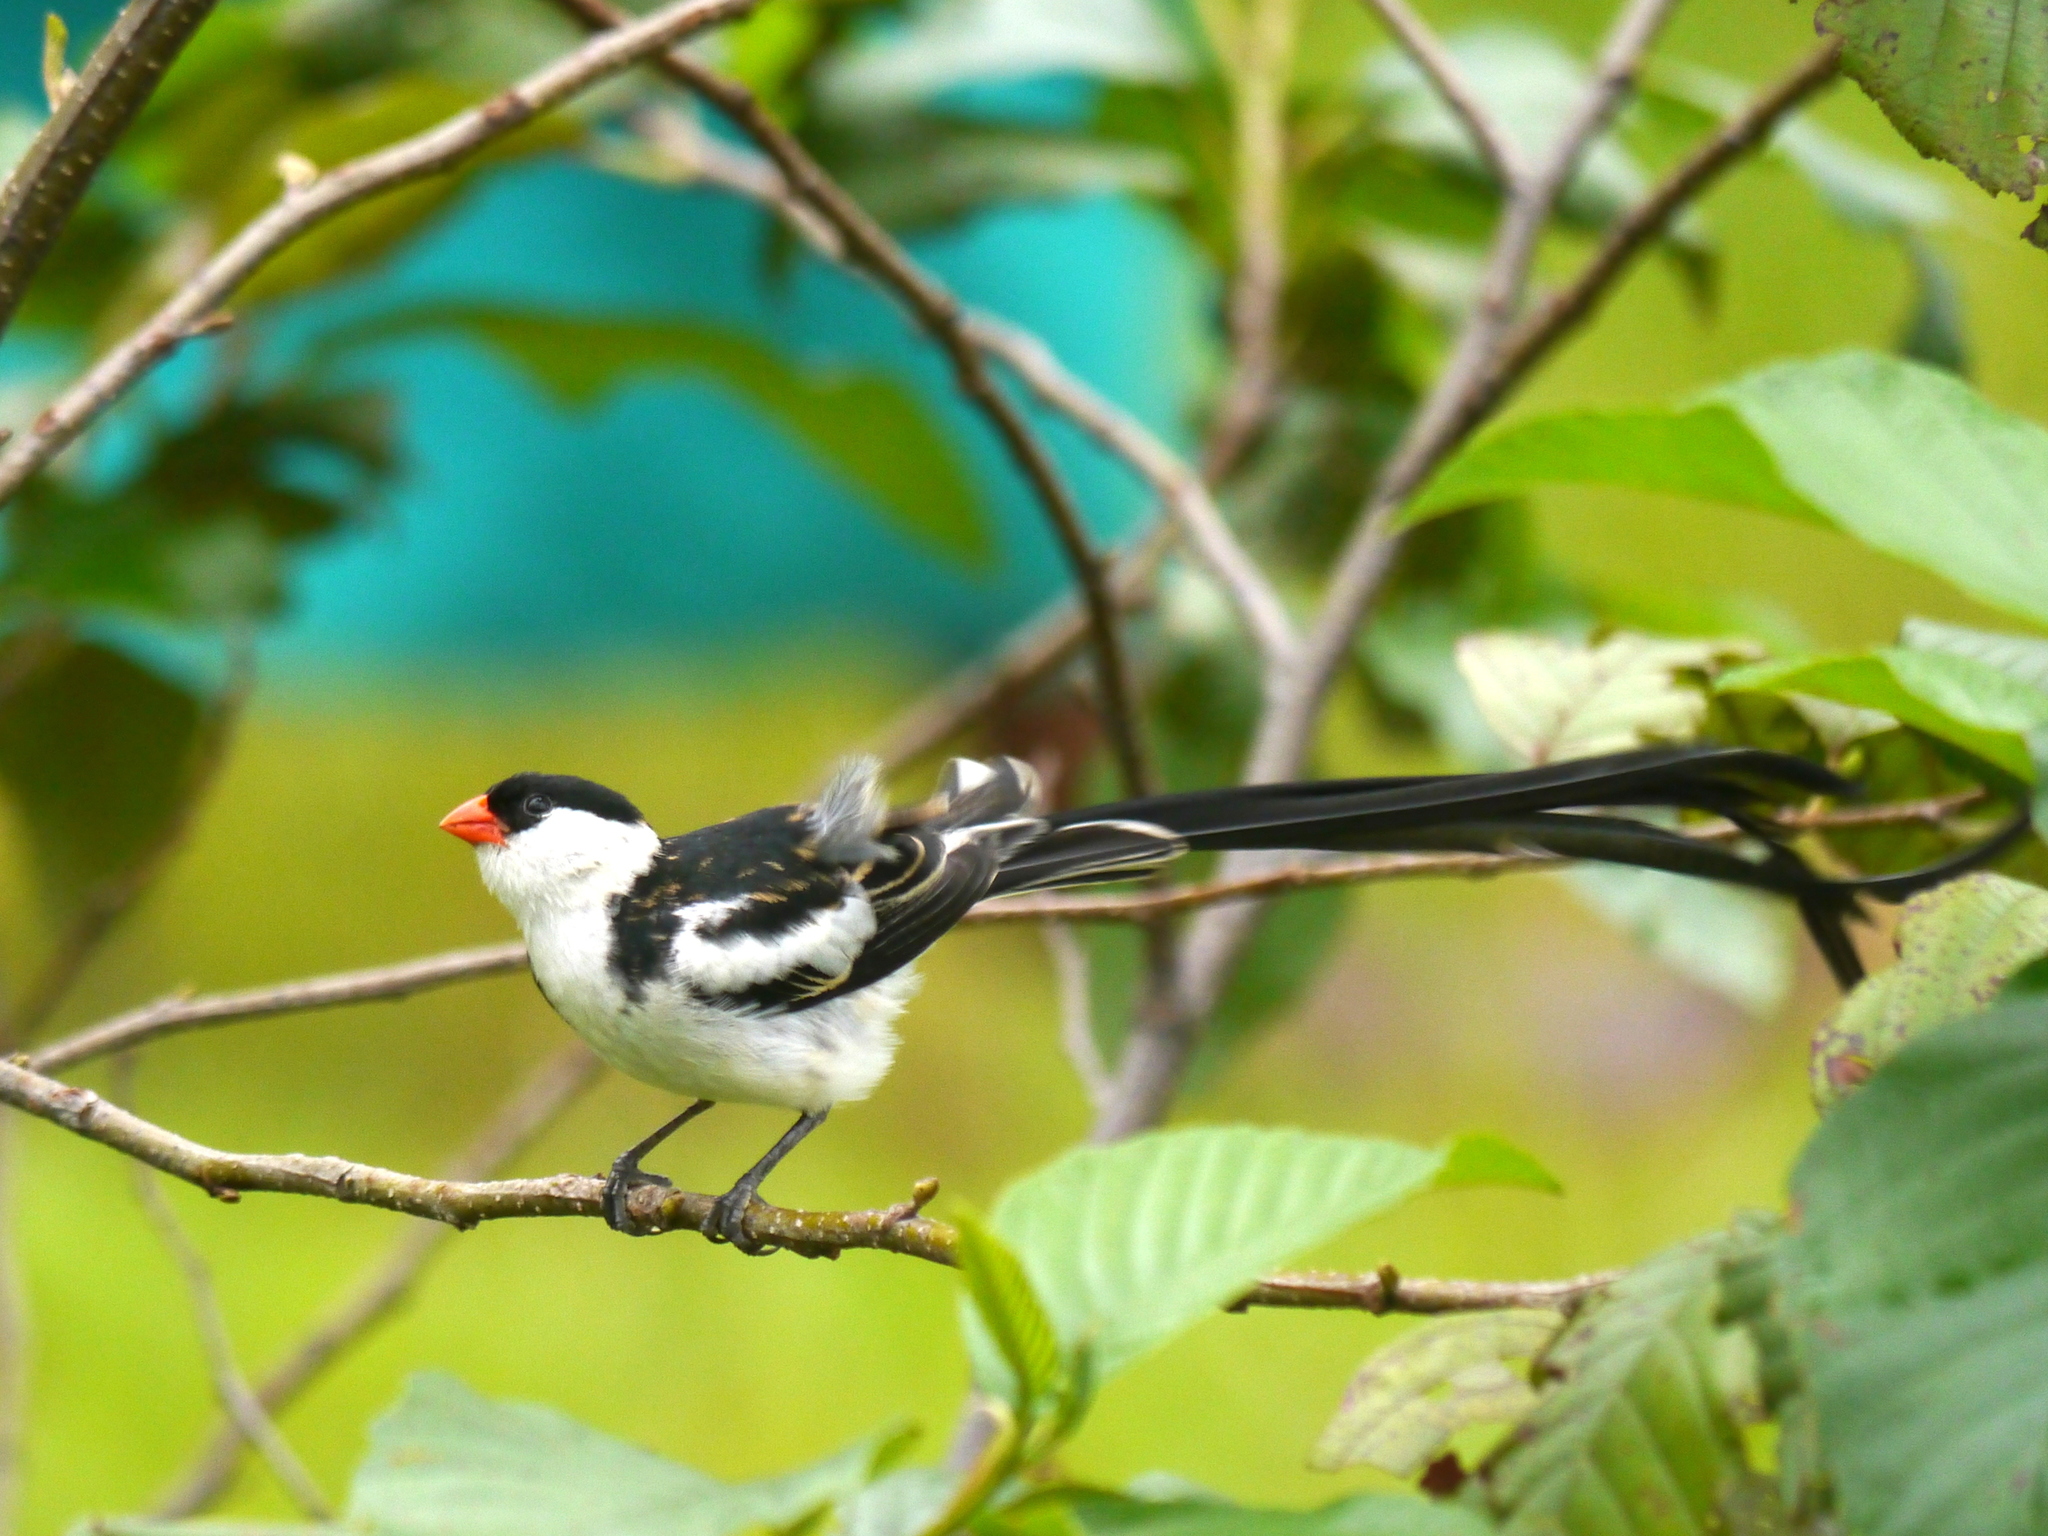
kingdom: Animalia
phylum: Chordata
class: Aves
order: Passeriformes
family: Viduidae
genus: Vidua
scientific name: Vidua macroura
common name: Pin-tailed whydah
